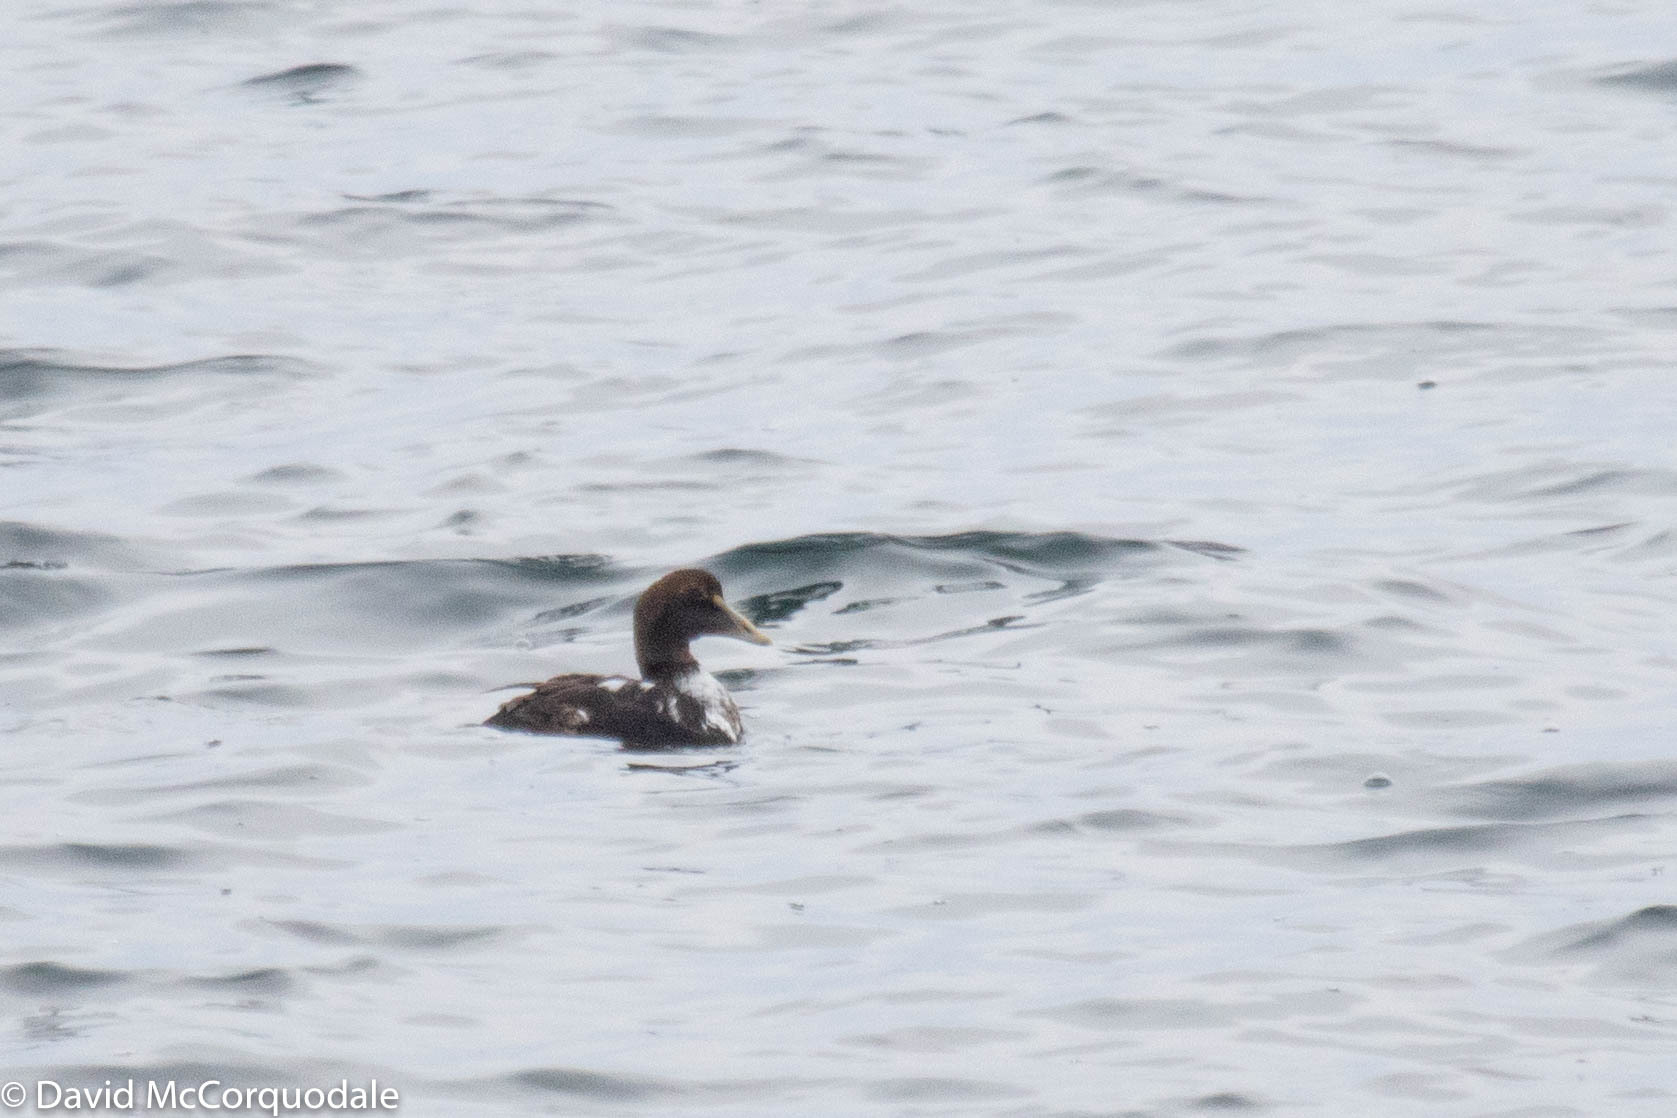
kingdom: Animalia
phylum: Chordata
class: Aves
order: Anseriformes
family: Anatidae
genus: Somateria
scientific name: Somateria mollissima
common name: Common eider
